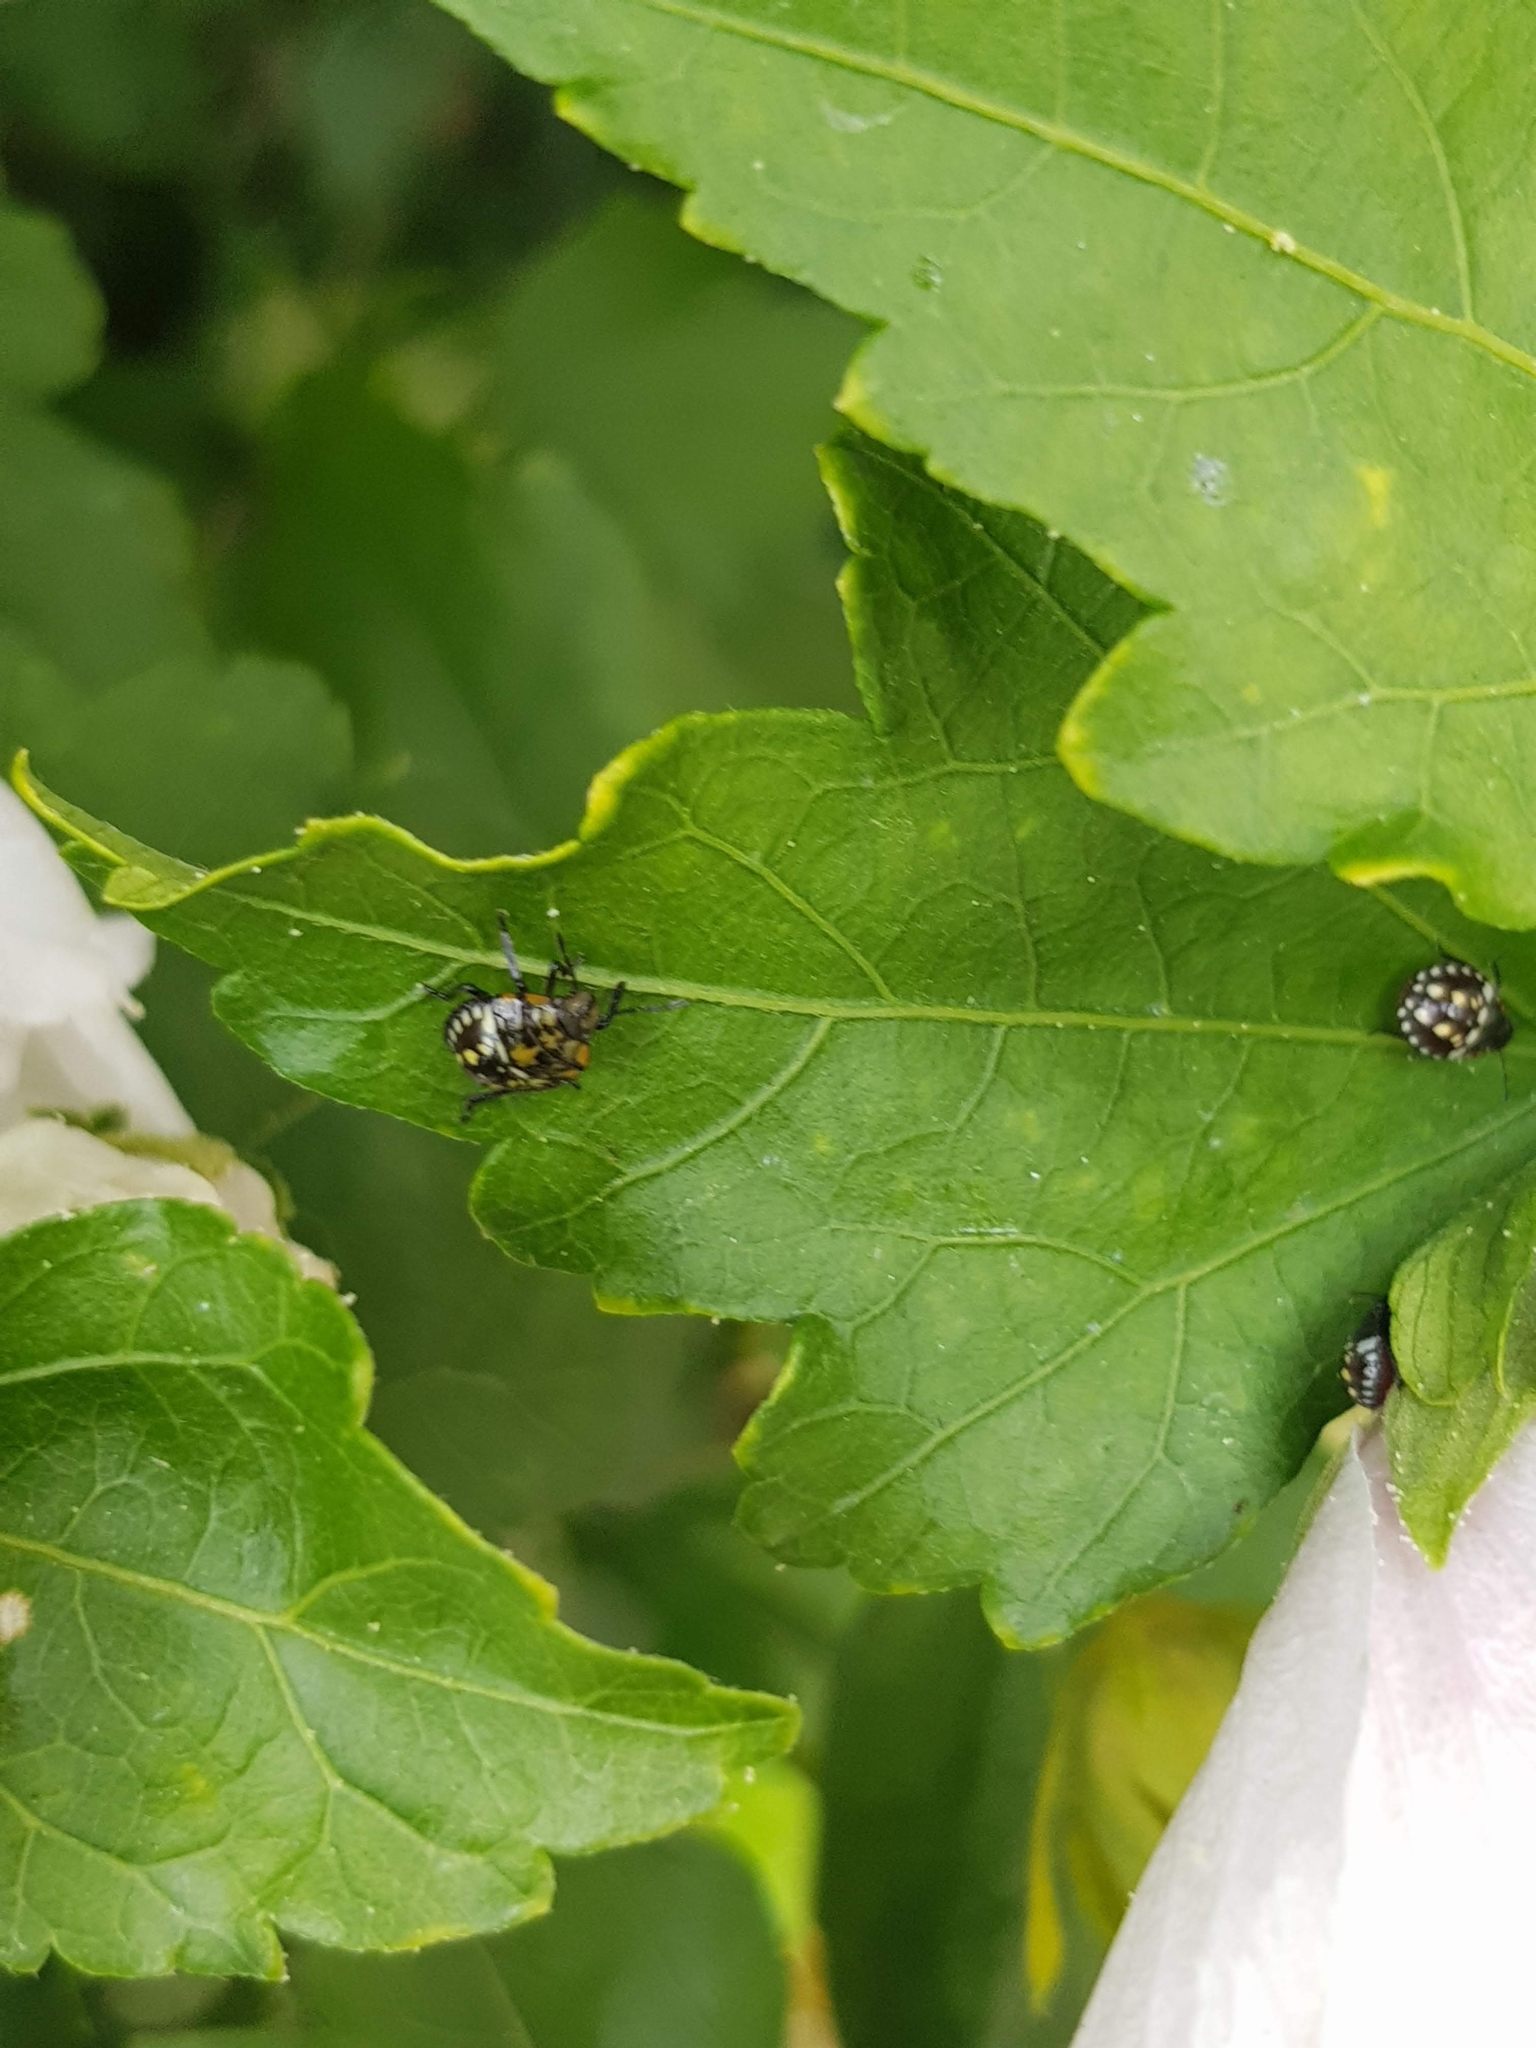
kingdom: Animalia
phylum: Arthropoda
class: Insecta
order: Hemiptera
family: Pentatomidae
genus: Nezara
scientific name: Nezara viridula
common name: Southern green stink bug
